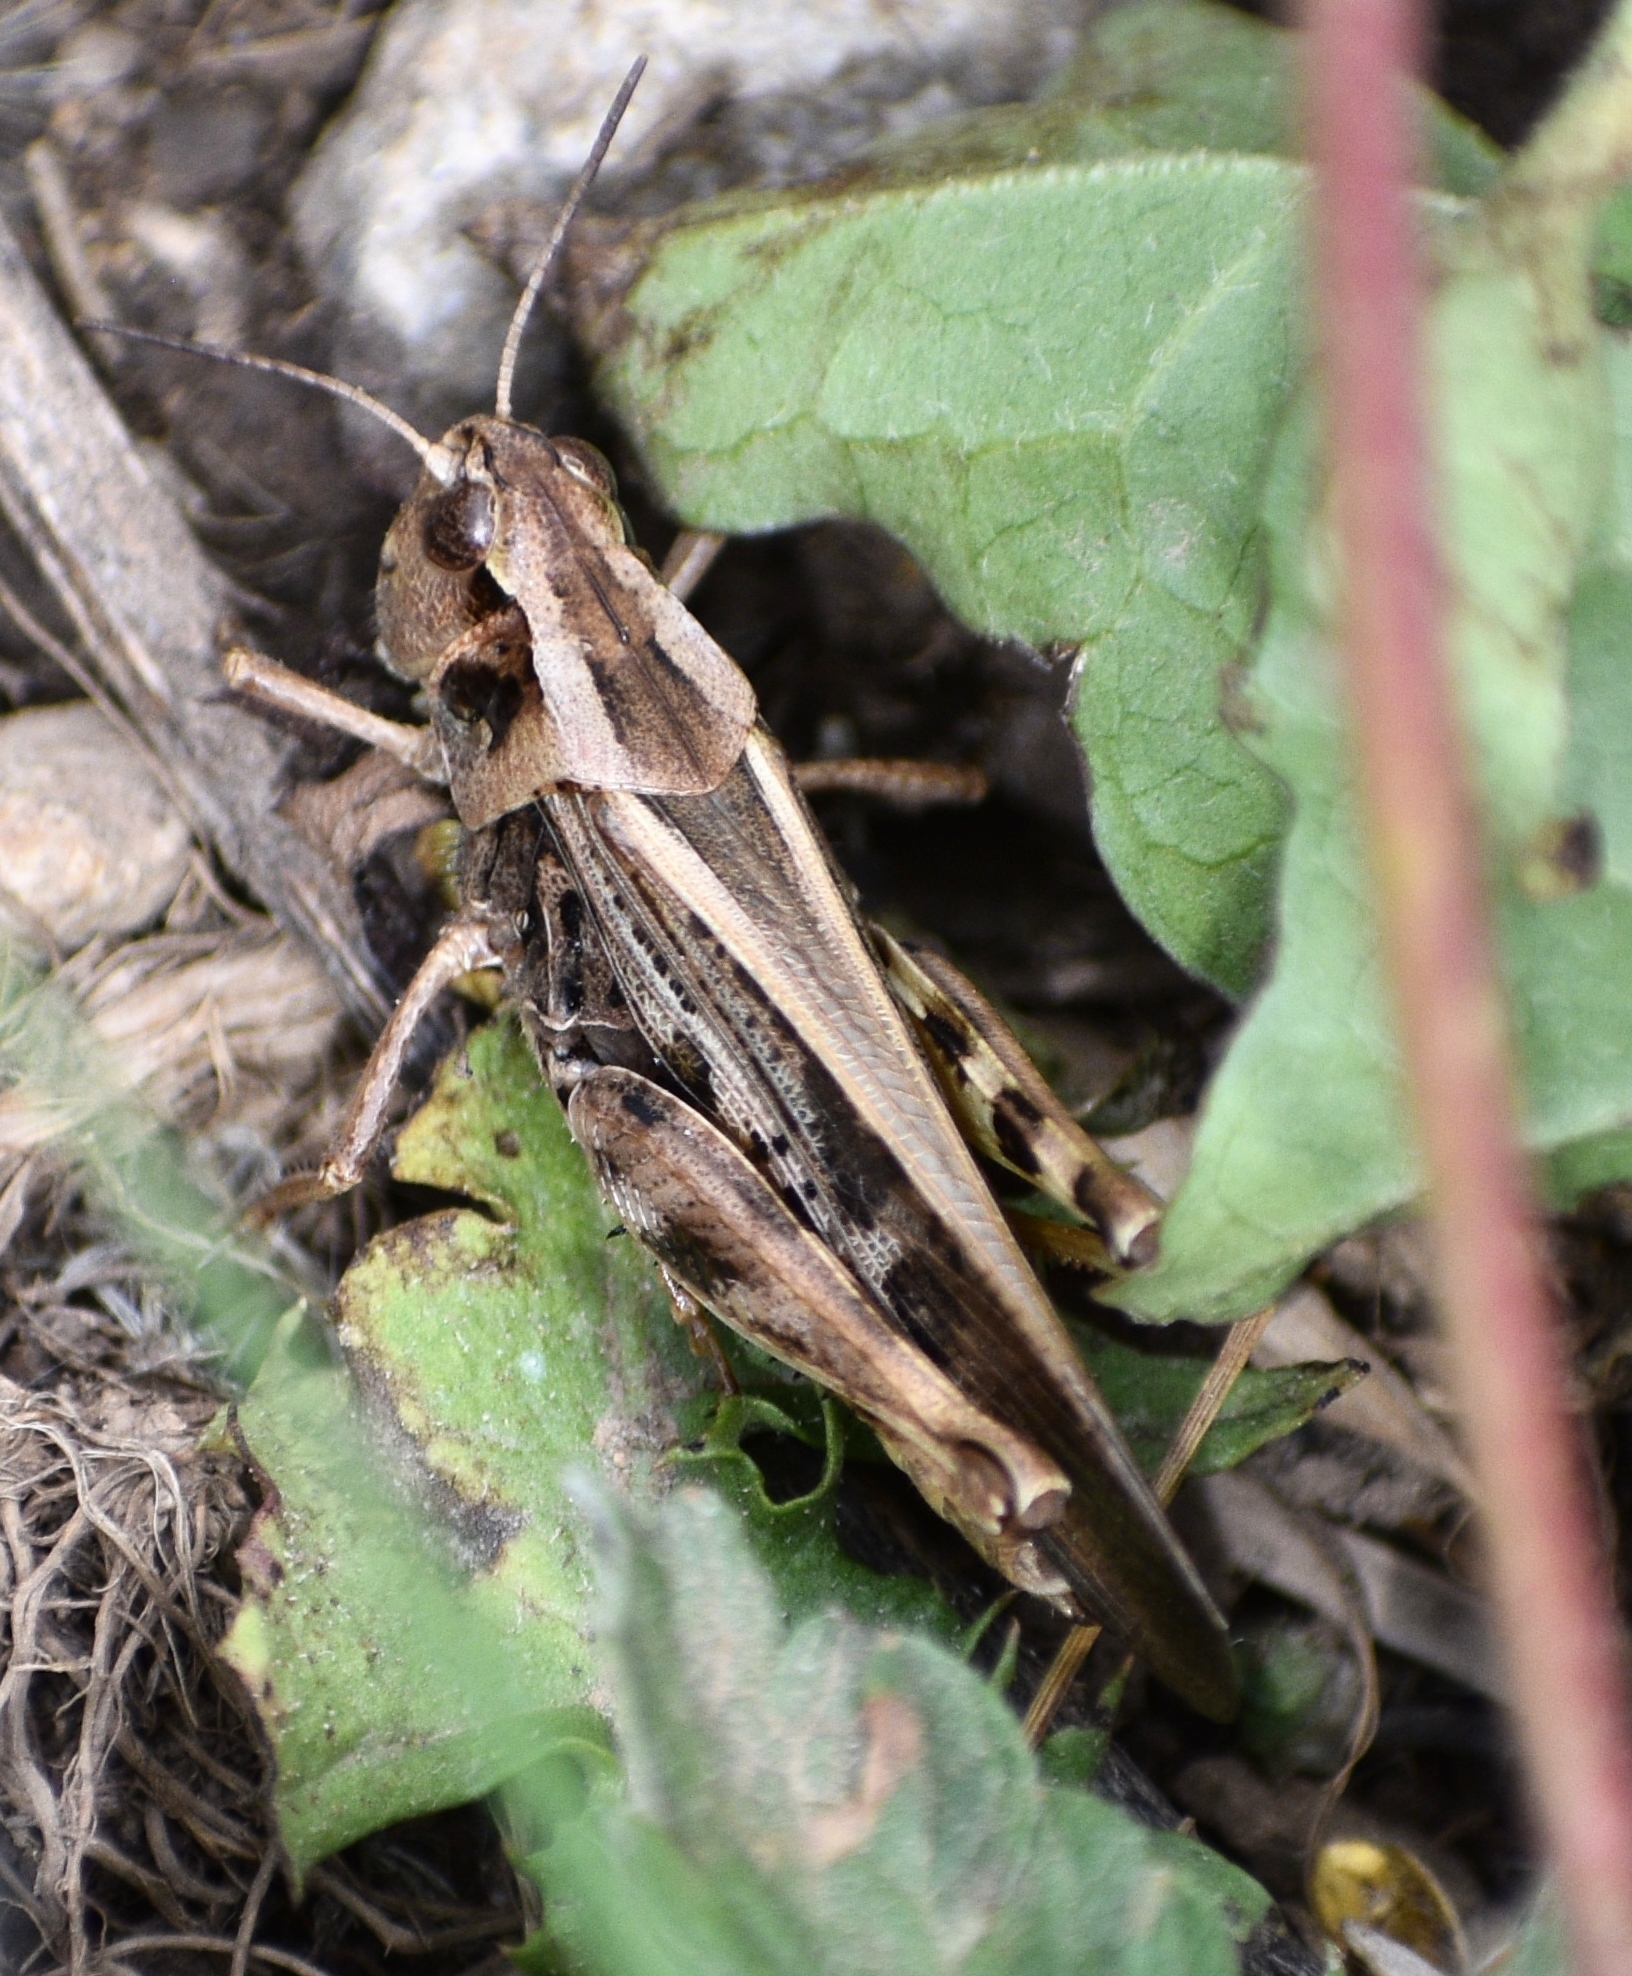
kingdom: Animalia
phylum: Arthropoda
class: Insecta
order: Orthoptera
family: Acrididae
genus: Camnula
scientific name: Camnula pellucida
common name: Clear-winged grasshopper
